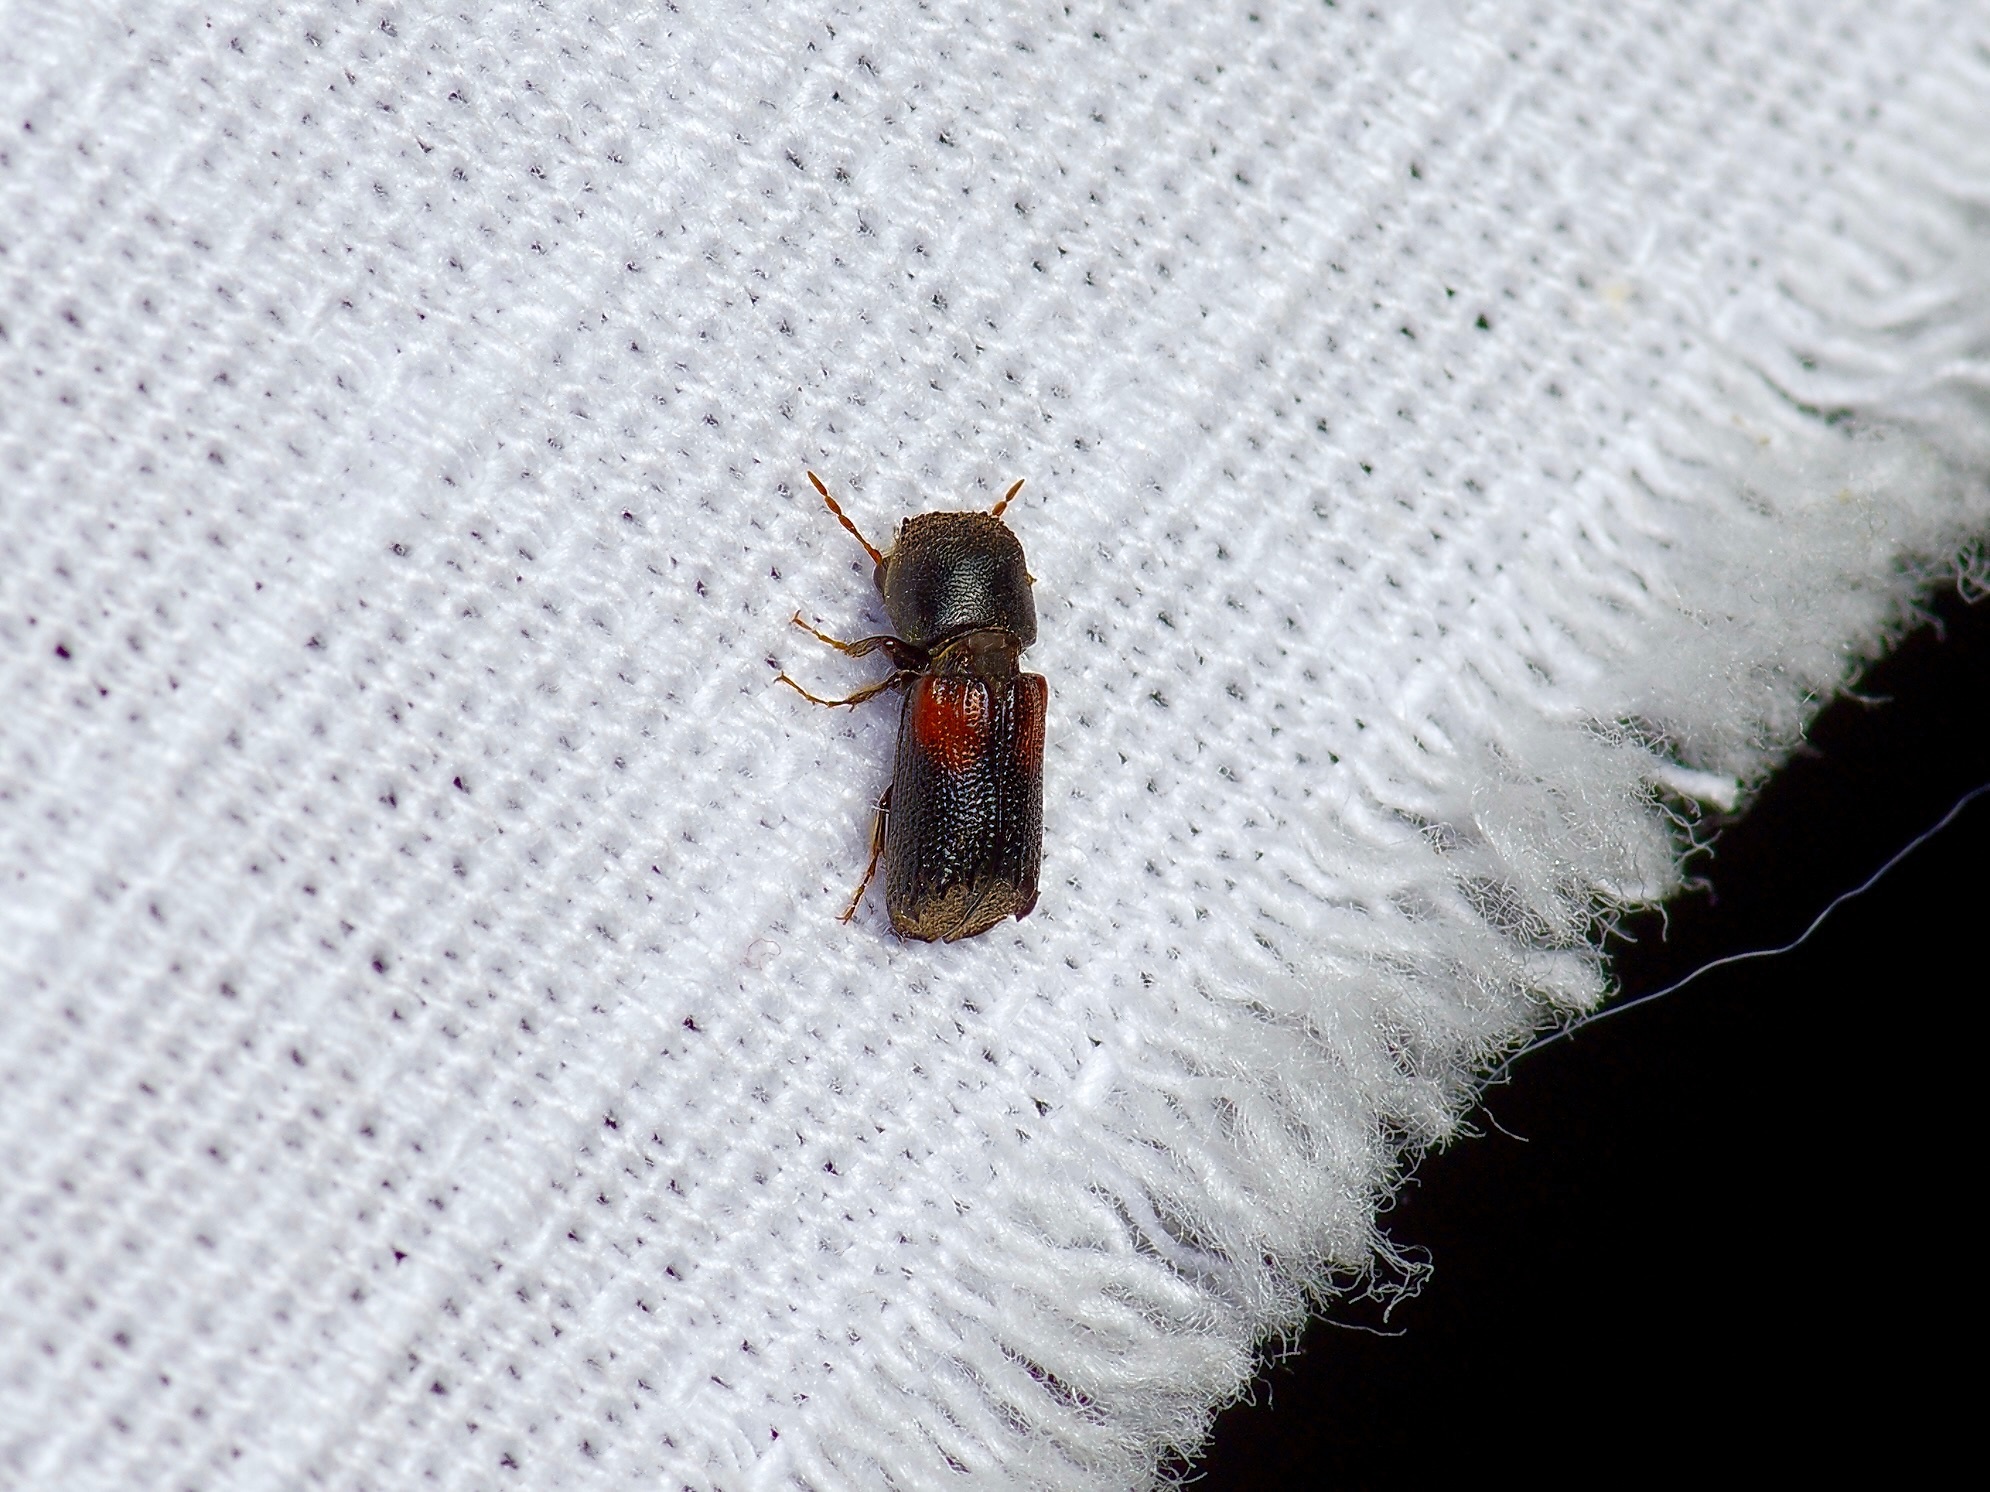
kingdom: Animalia
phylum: Arthropoda
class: Insecta
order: Coleoptera
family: Bostrichidae
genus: Xylobiops
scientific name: Xylobiops basilaris
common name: Red-shouldered bostrichid
